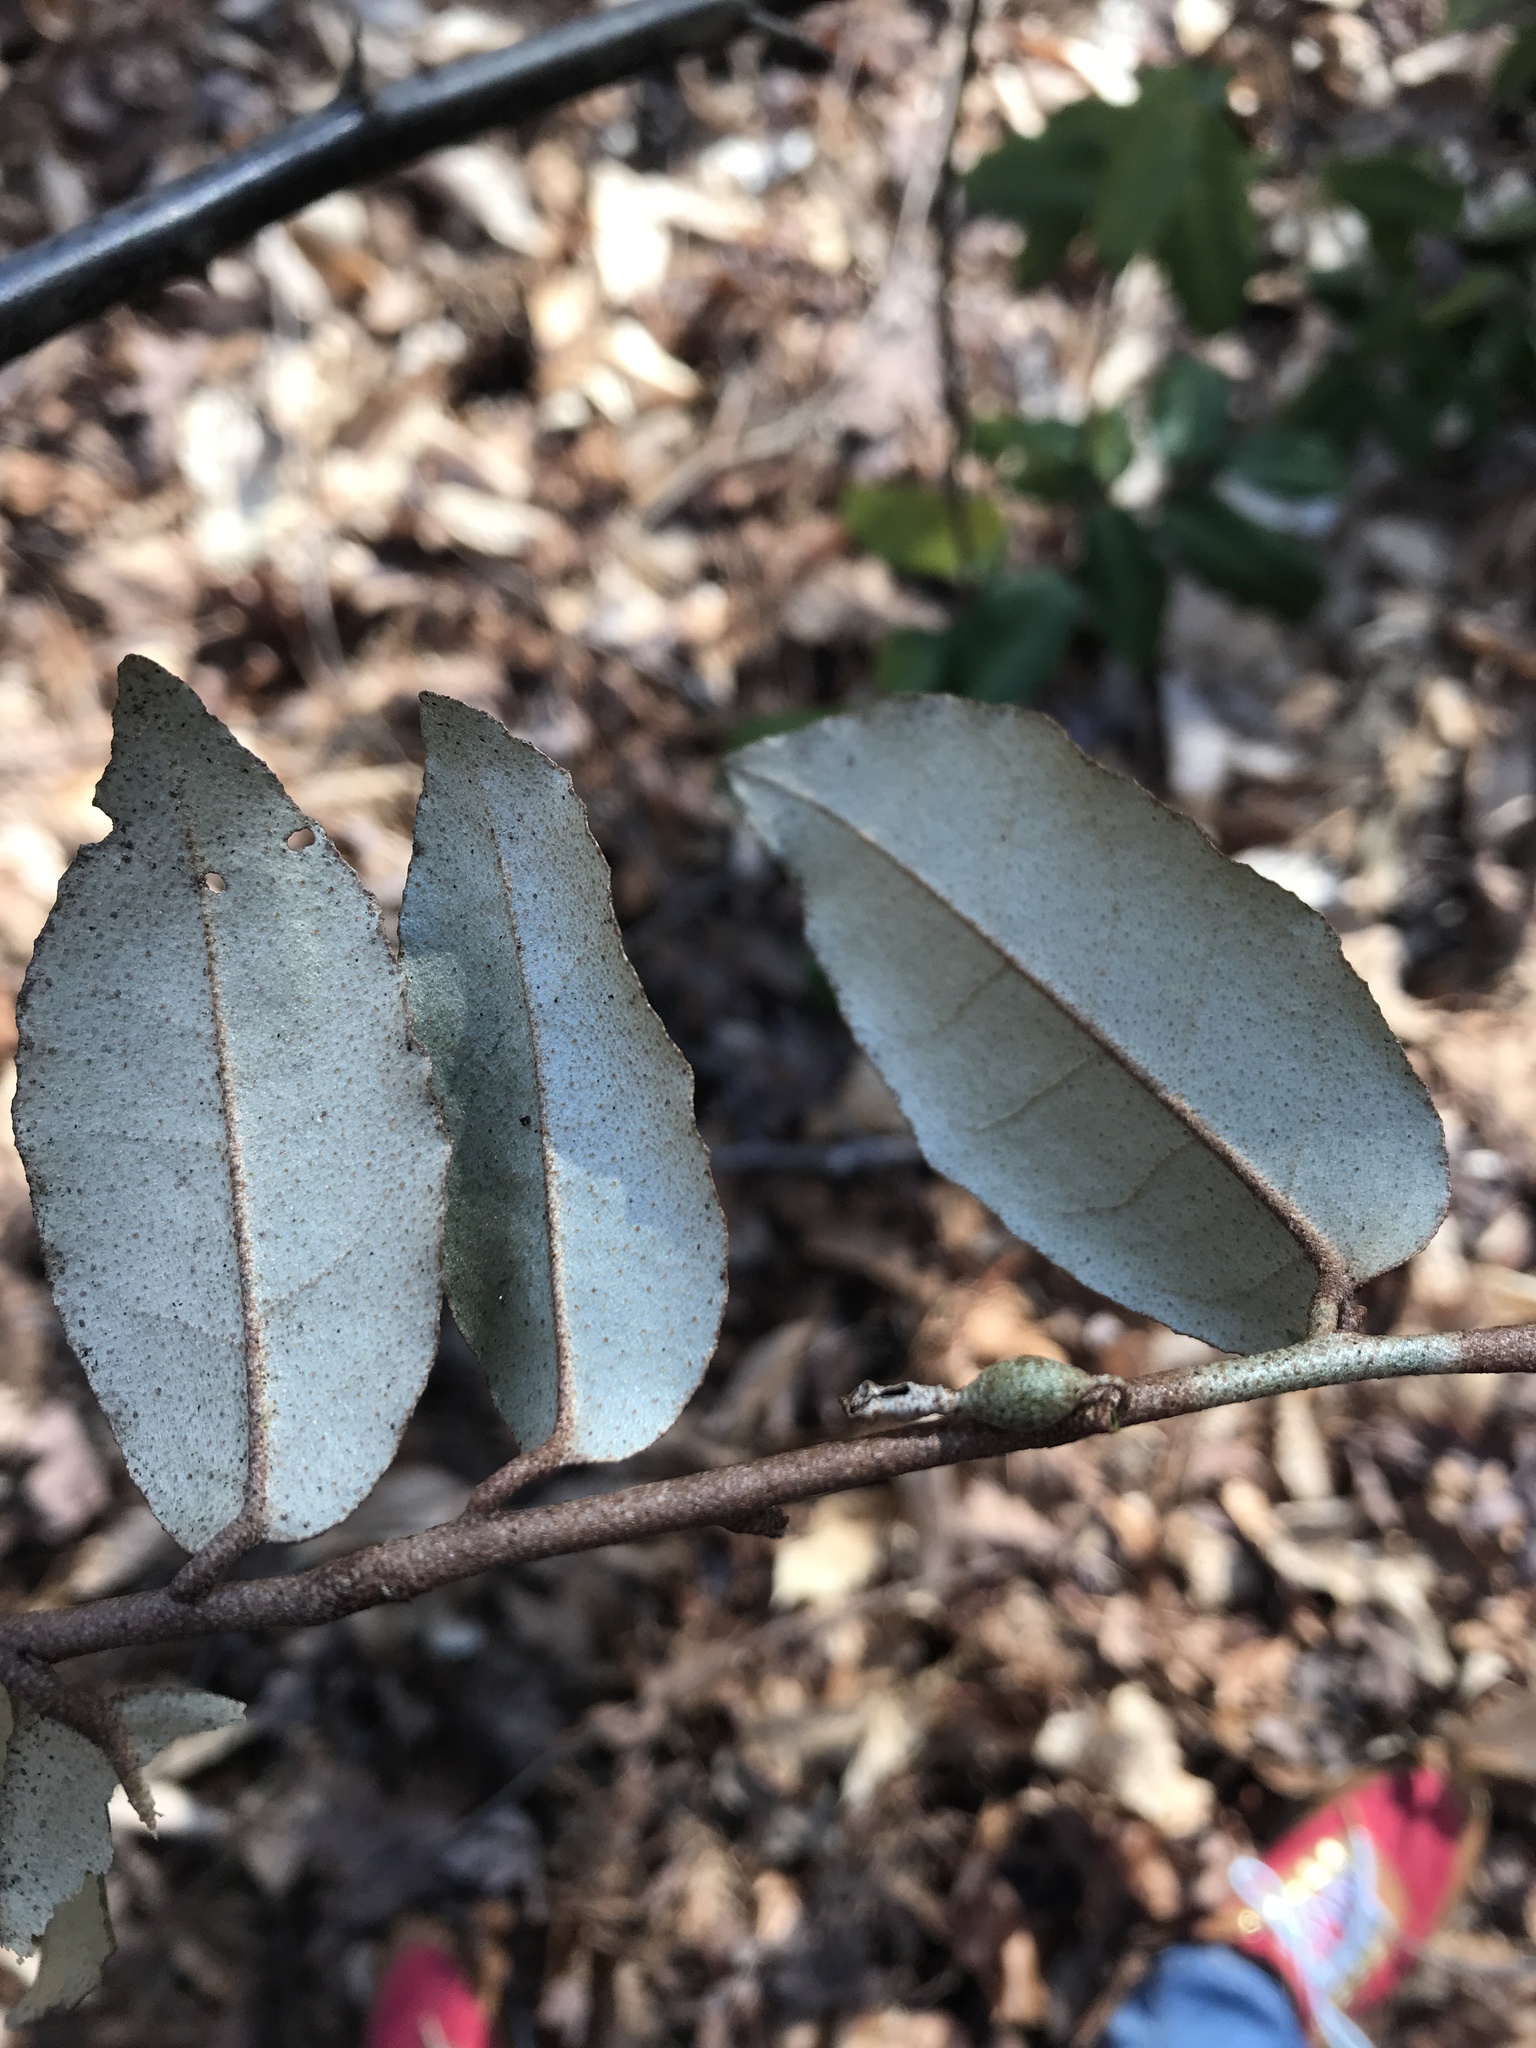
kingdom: Plantae
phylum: Tracheophyta
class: Magnoliopsida
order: Rosales
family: Elaeagnaceae
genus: Elaeagnus
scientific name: Elaeagnus pungens
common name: Spiny oleaster
